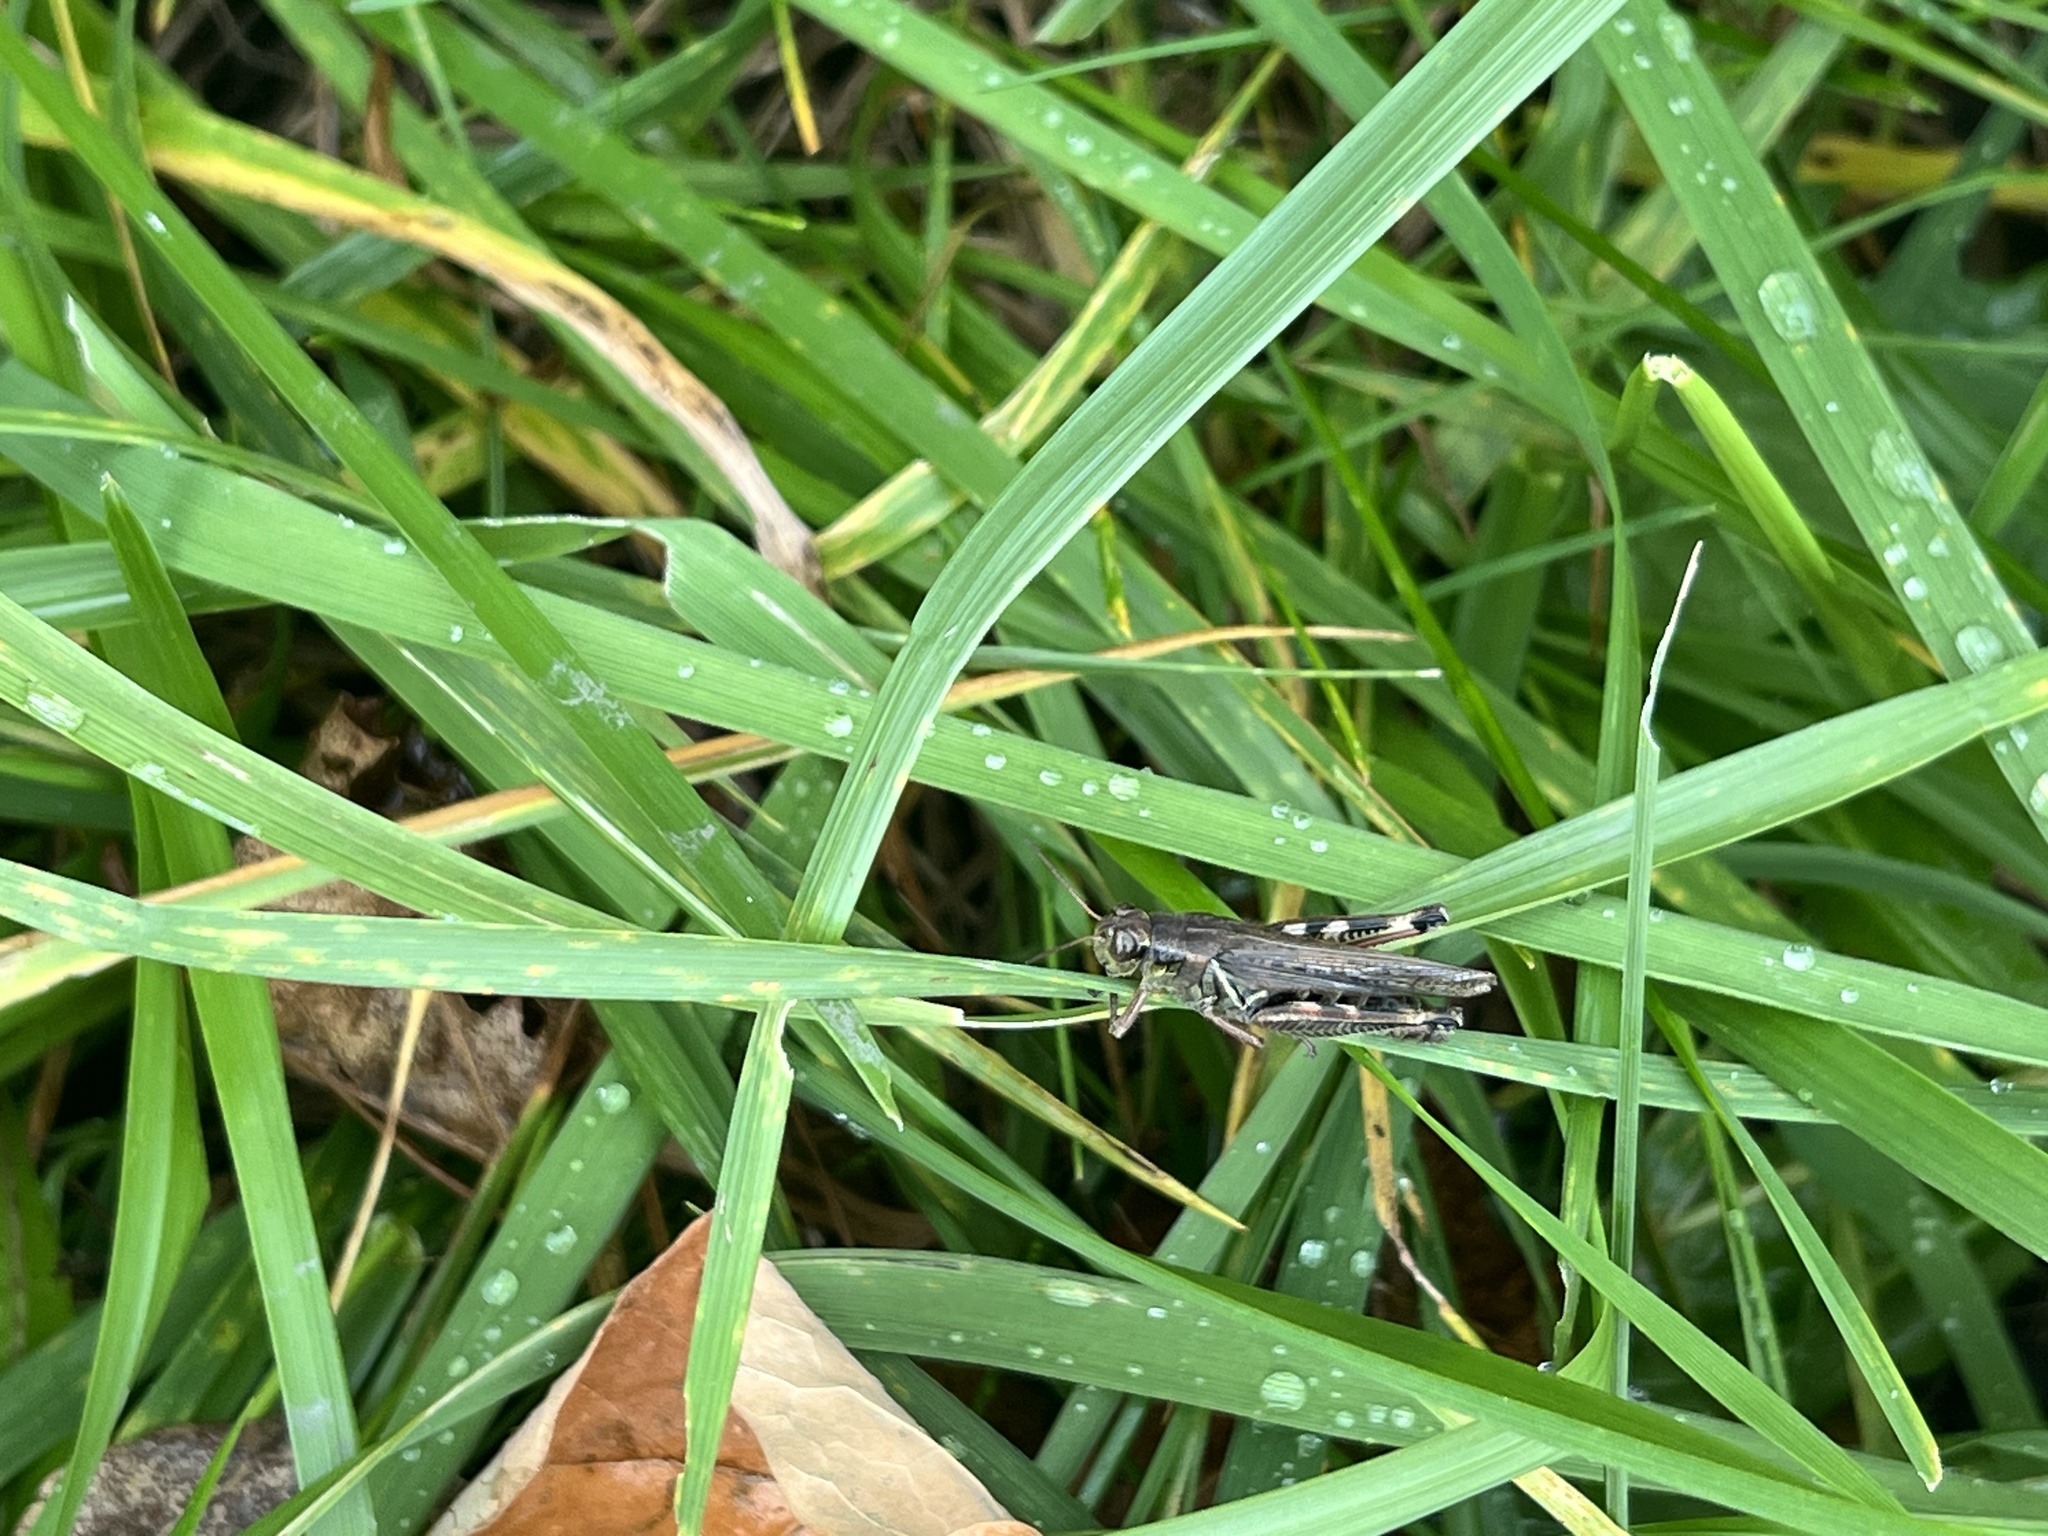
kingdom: Animalia
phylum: Arthropoda
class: Insecta
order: Orthoptera
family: Acrididae
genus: Melanoplus
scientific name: Melanoplus femurrubrum
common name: Red-legged grasshopper
